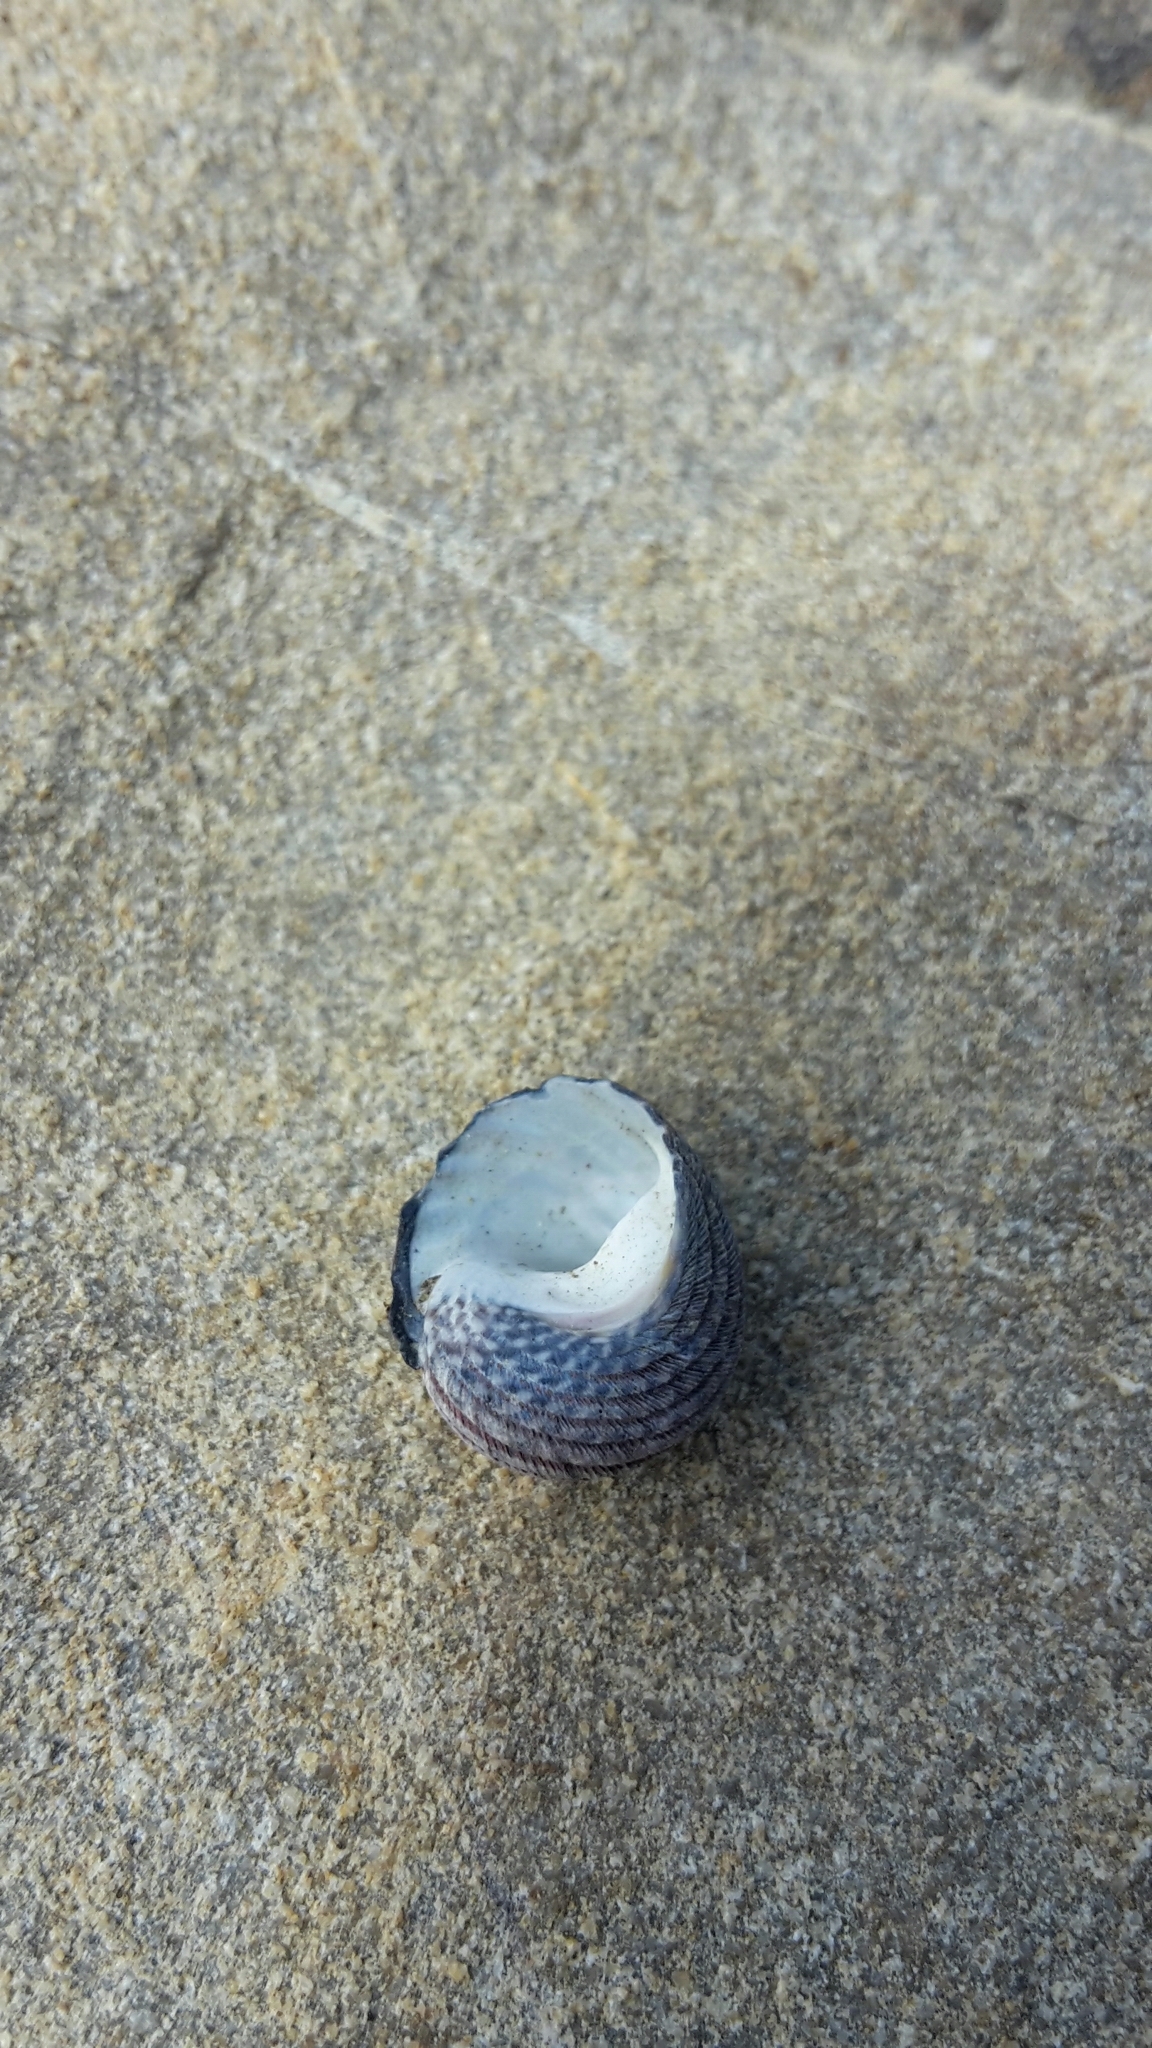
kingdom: Animalia
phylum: Mollusca
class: Gastropoda
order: Trochida
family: Trochidae
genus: Diloma
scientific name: Diloma aethiops
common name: Scorched monodont
